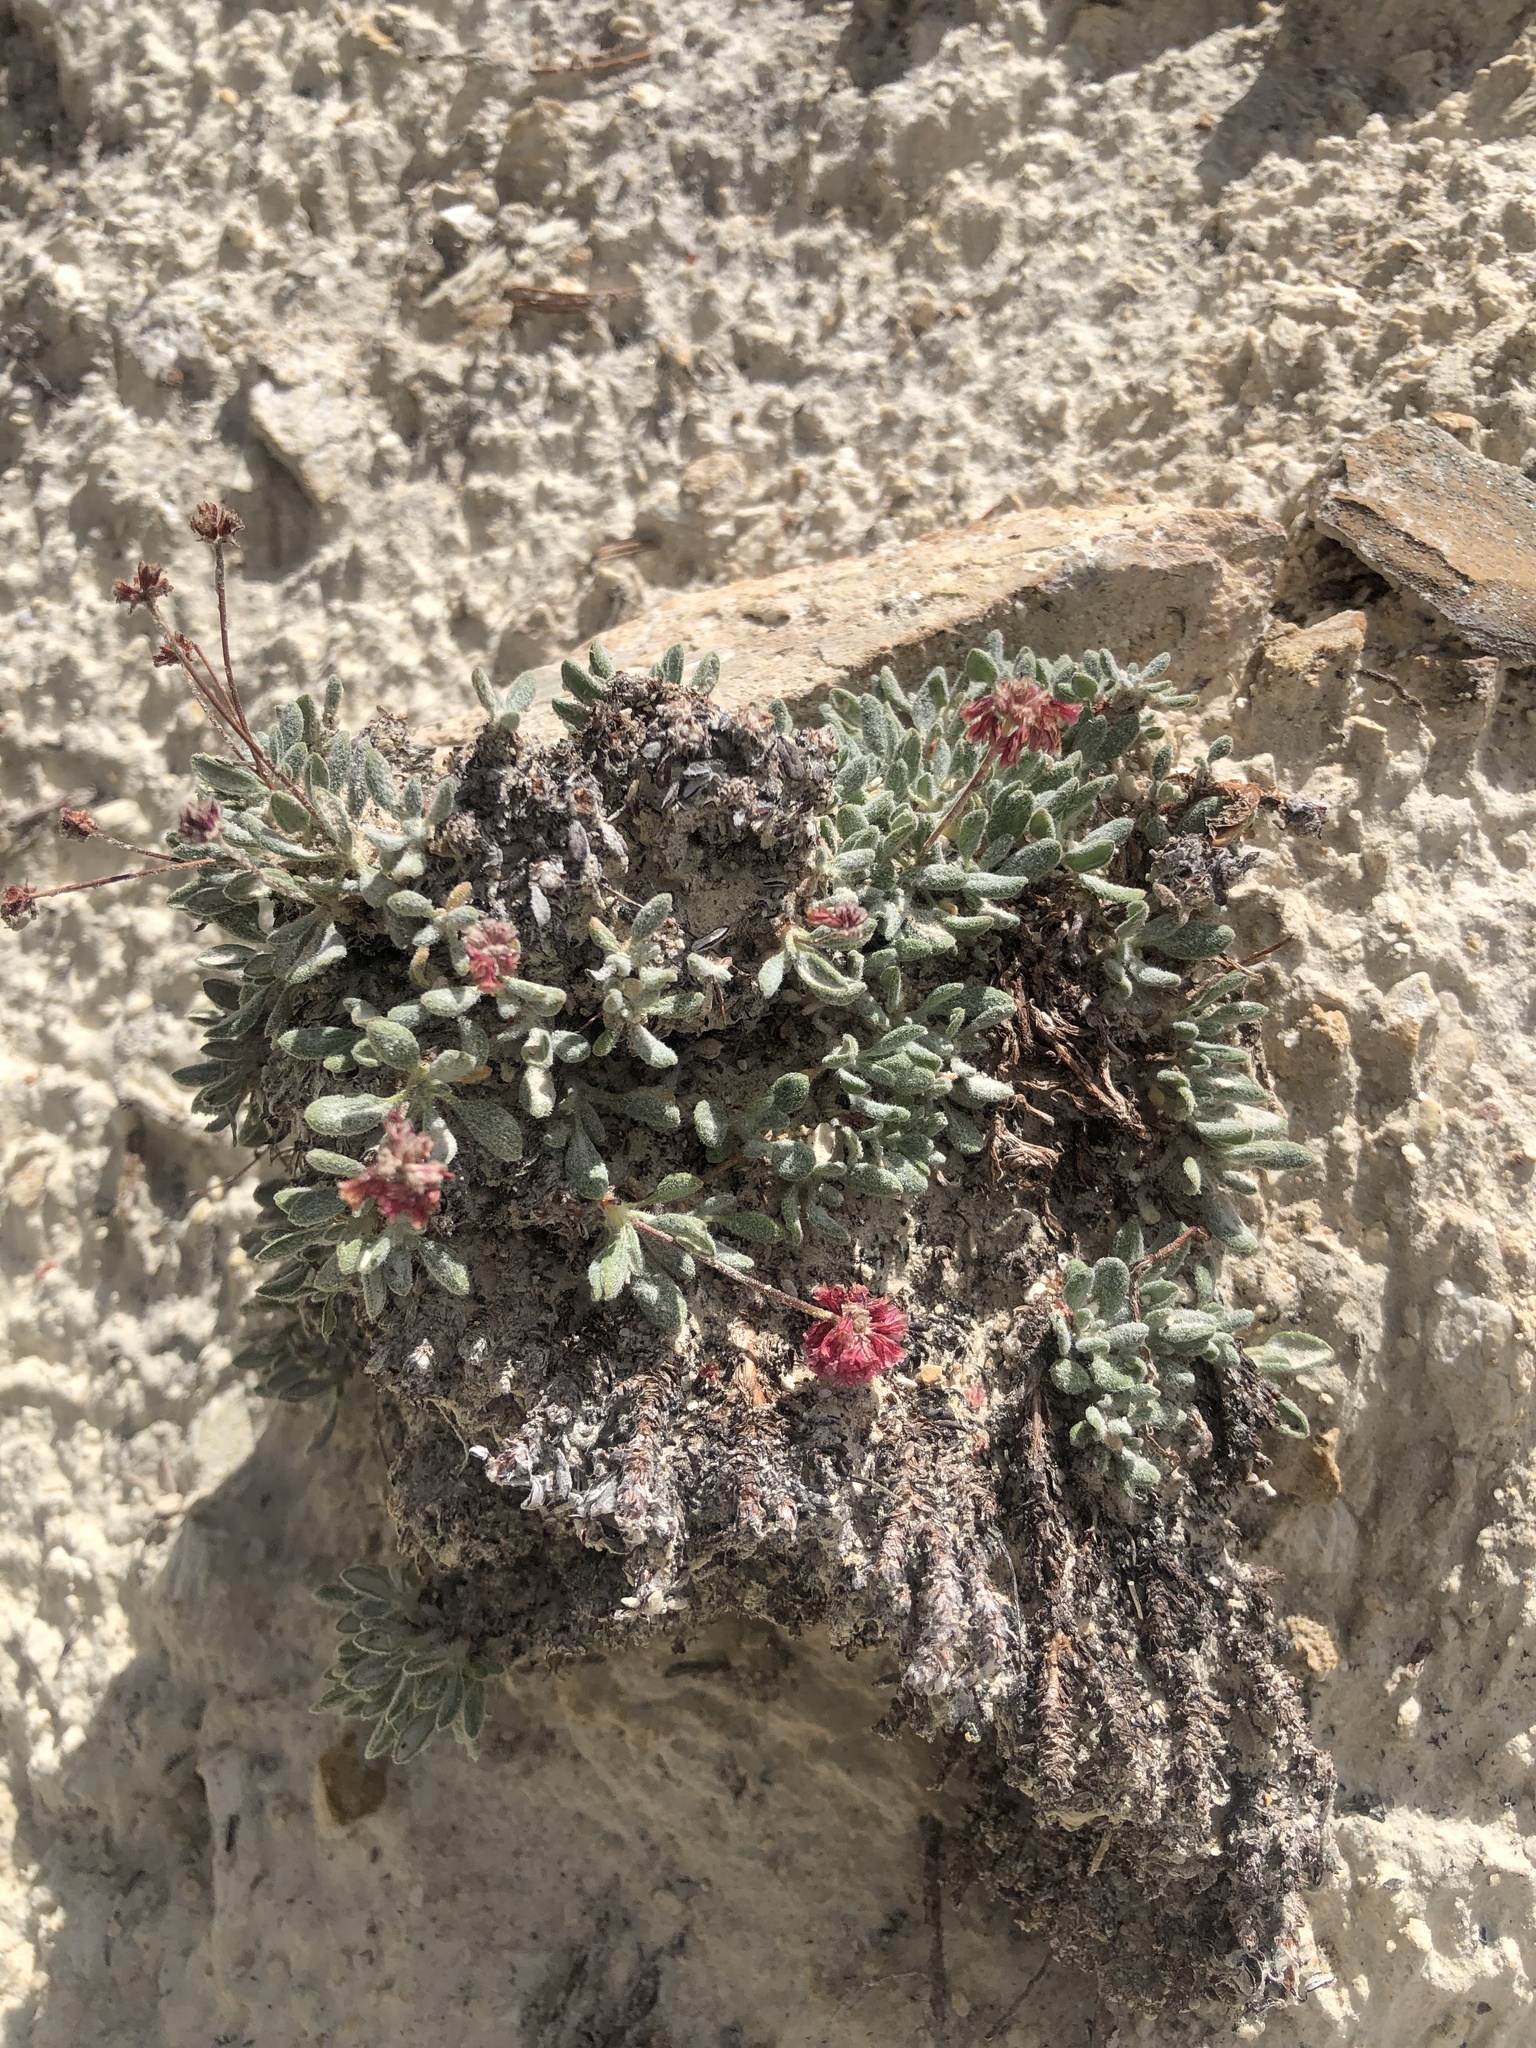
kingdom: Plantae
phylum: Tracheophyta
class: Magnoliopsida
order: Caryophyllales
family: Polygonaceae
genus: Eriogonum
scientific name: Eriogonum gracilipes
